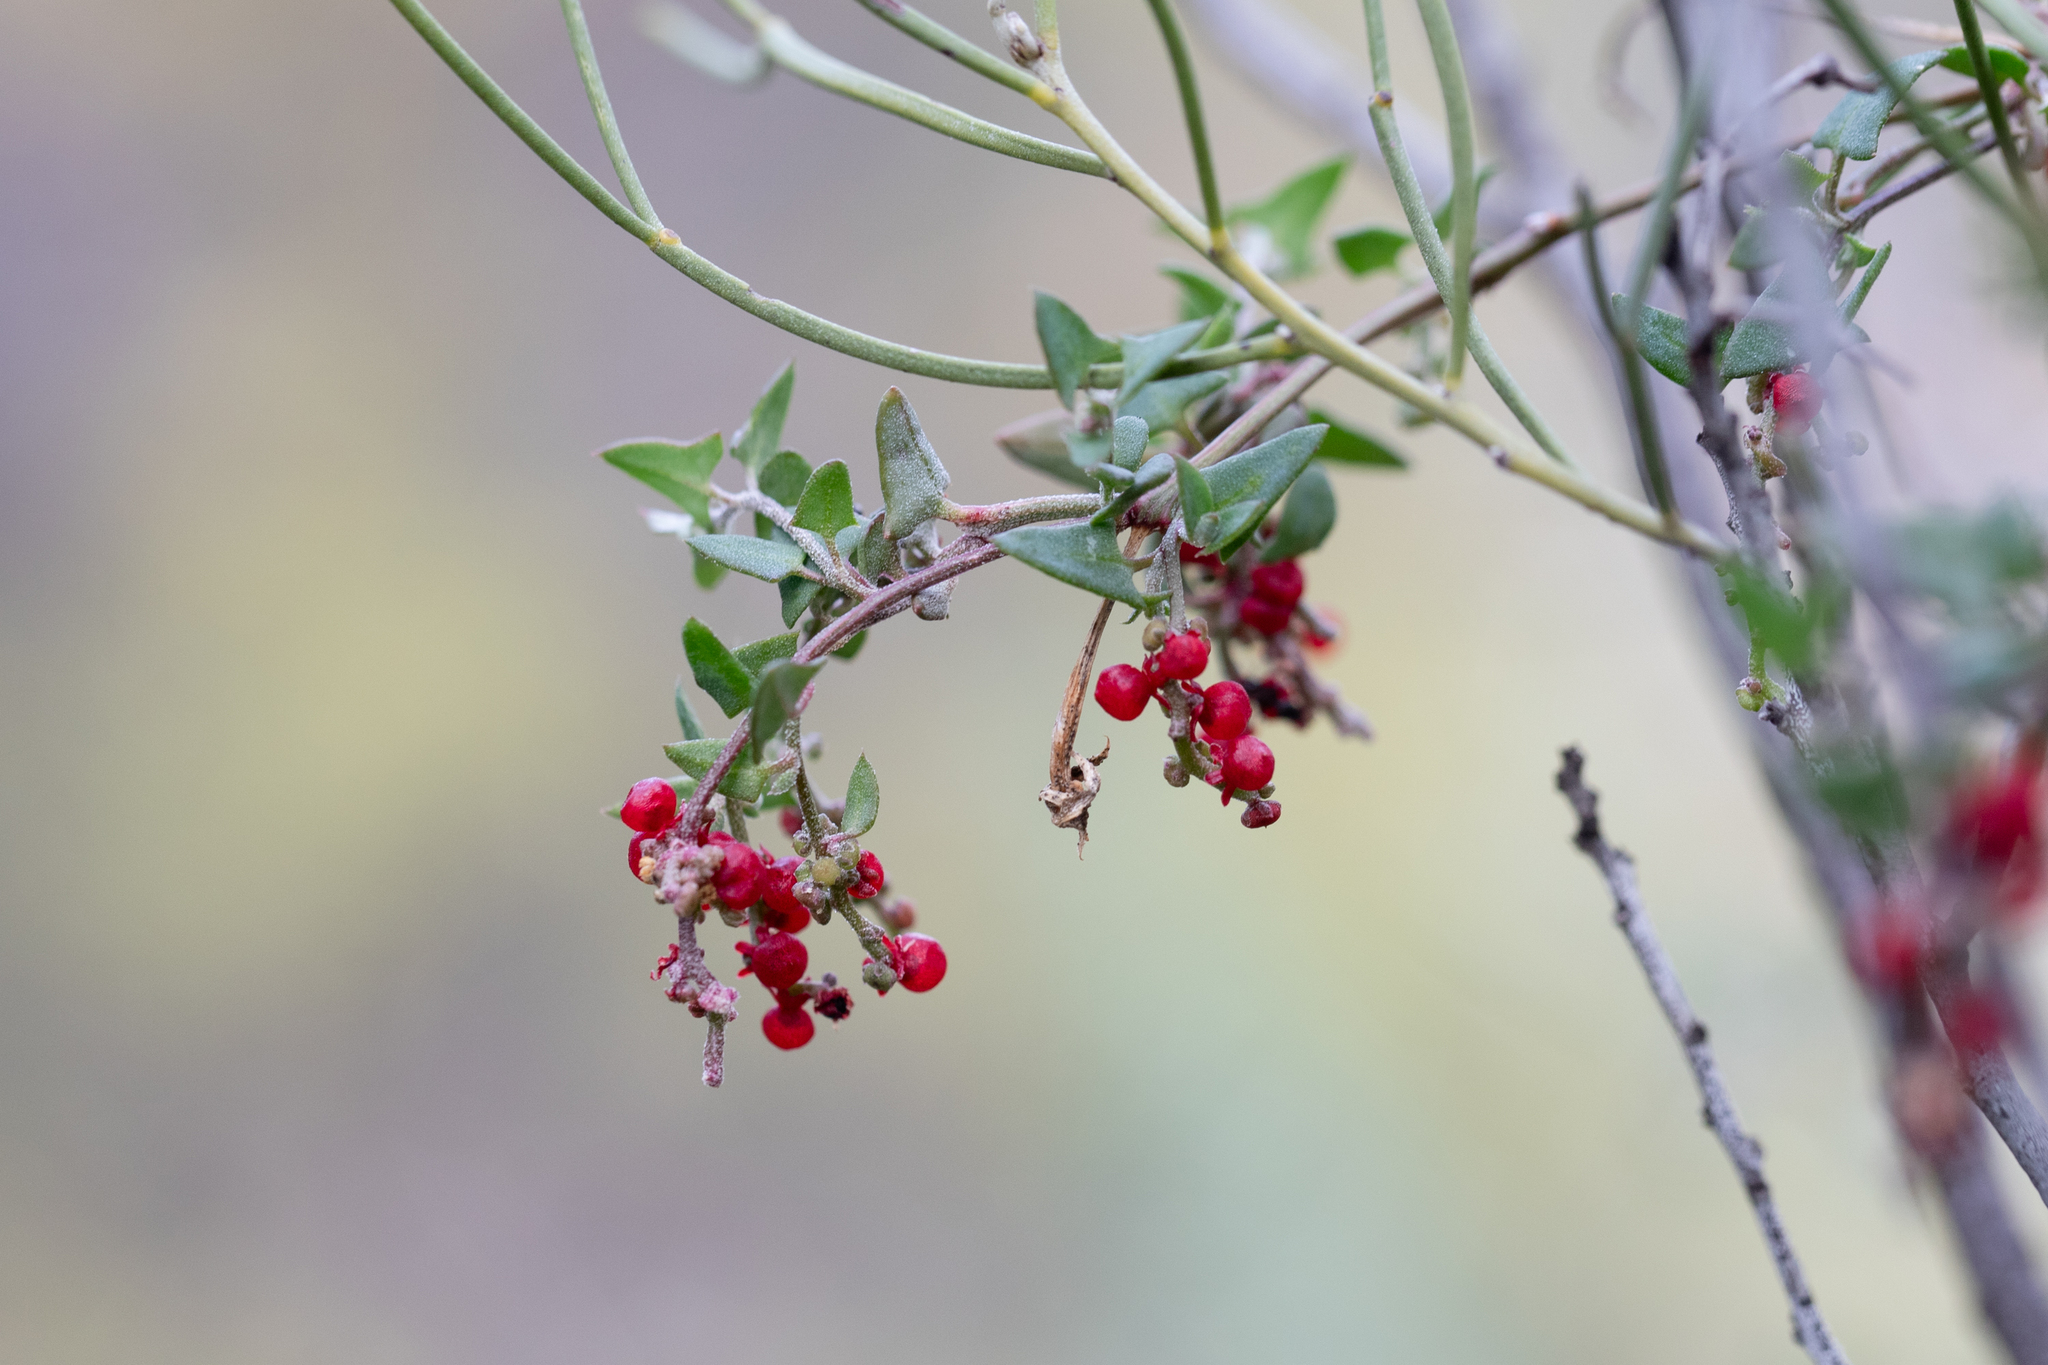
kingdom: Plantae
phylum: Tracheophyta
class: Magnoliopsida
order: Caryophyllales
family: Amaranthaceae
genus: Chenopodium
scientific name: Chenopodium nutans
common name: Climbing-saltbush
